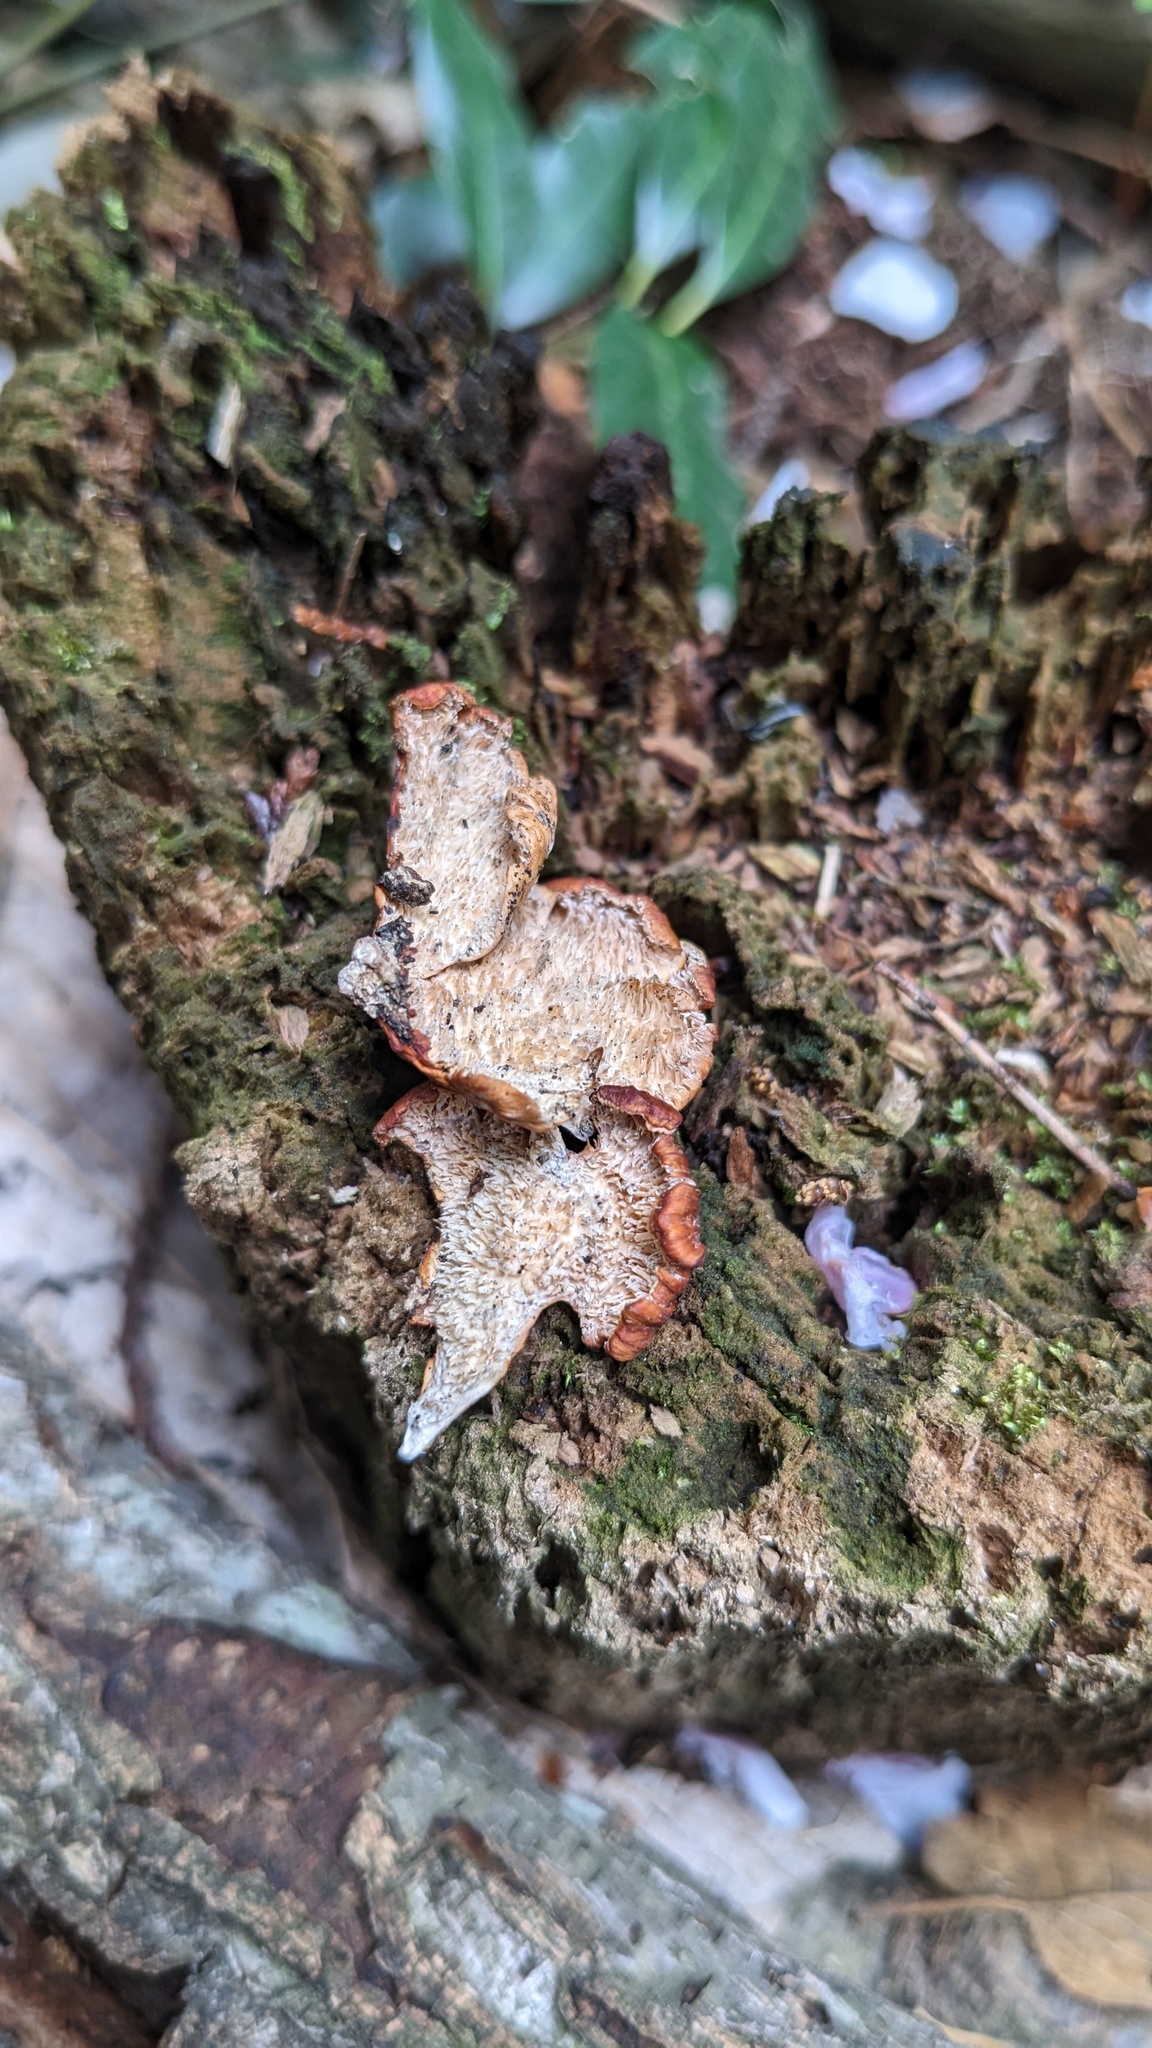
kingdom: Fungi
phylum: Basidiomycota
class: Agaricomycetes
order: Polyporales
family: Irpicaceae
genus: Irpex
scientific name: Irpex consors
